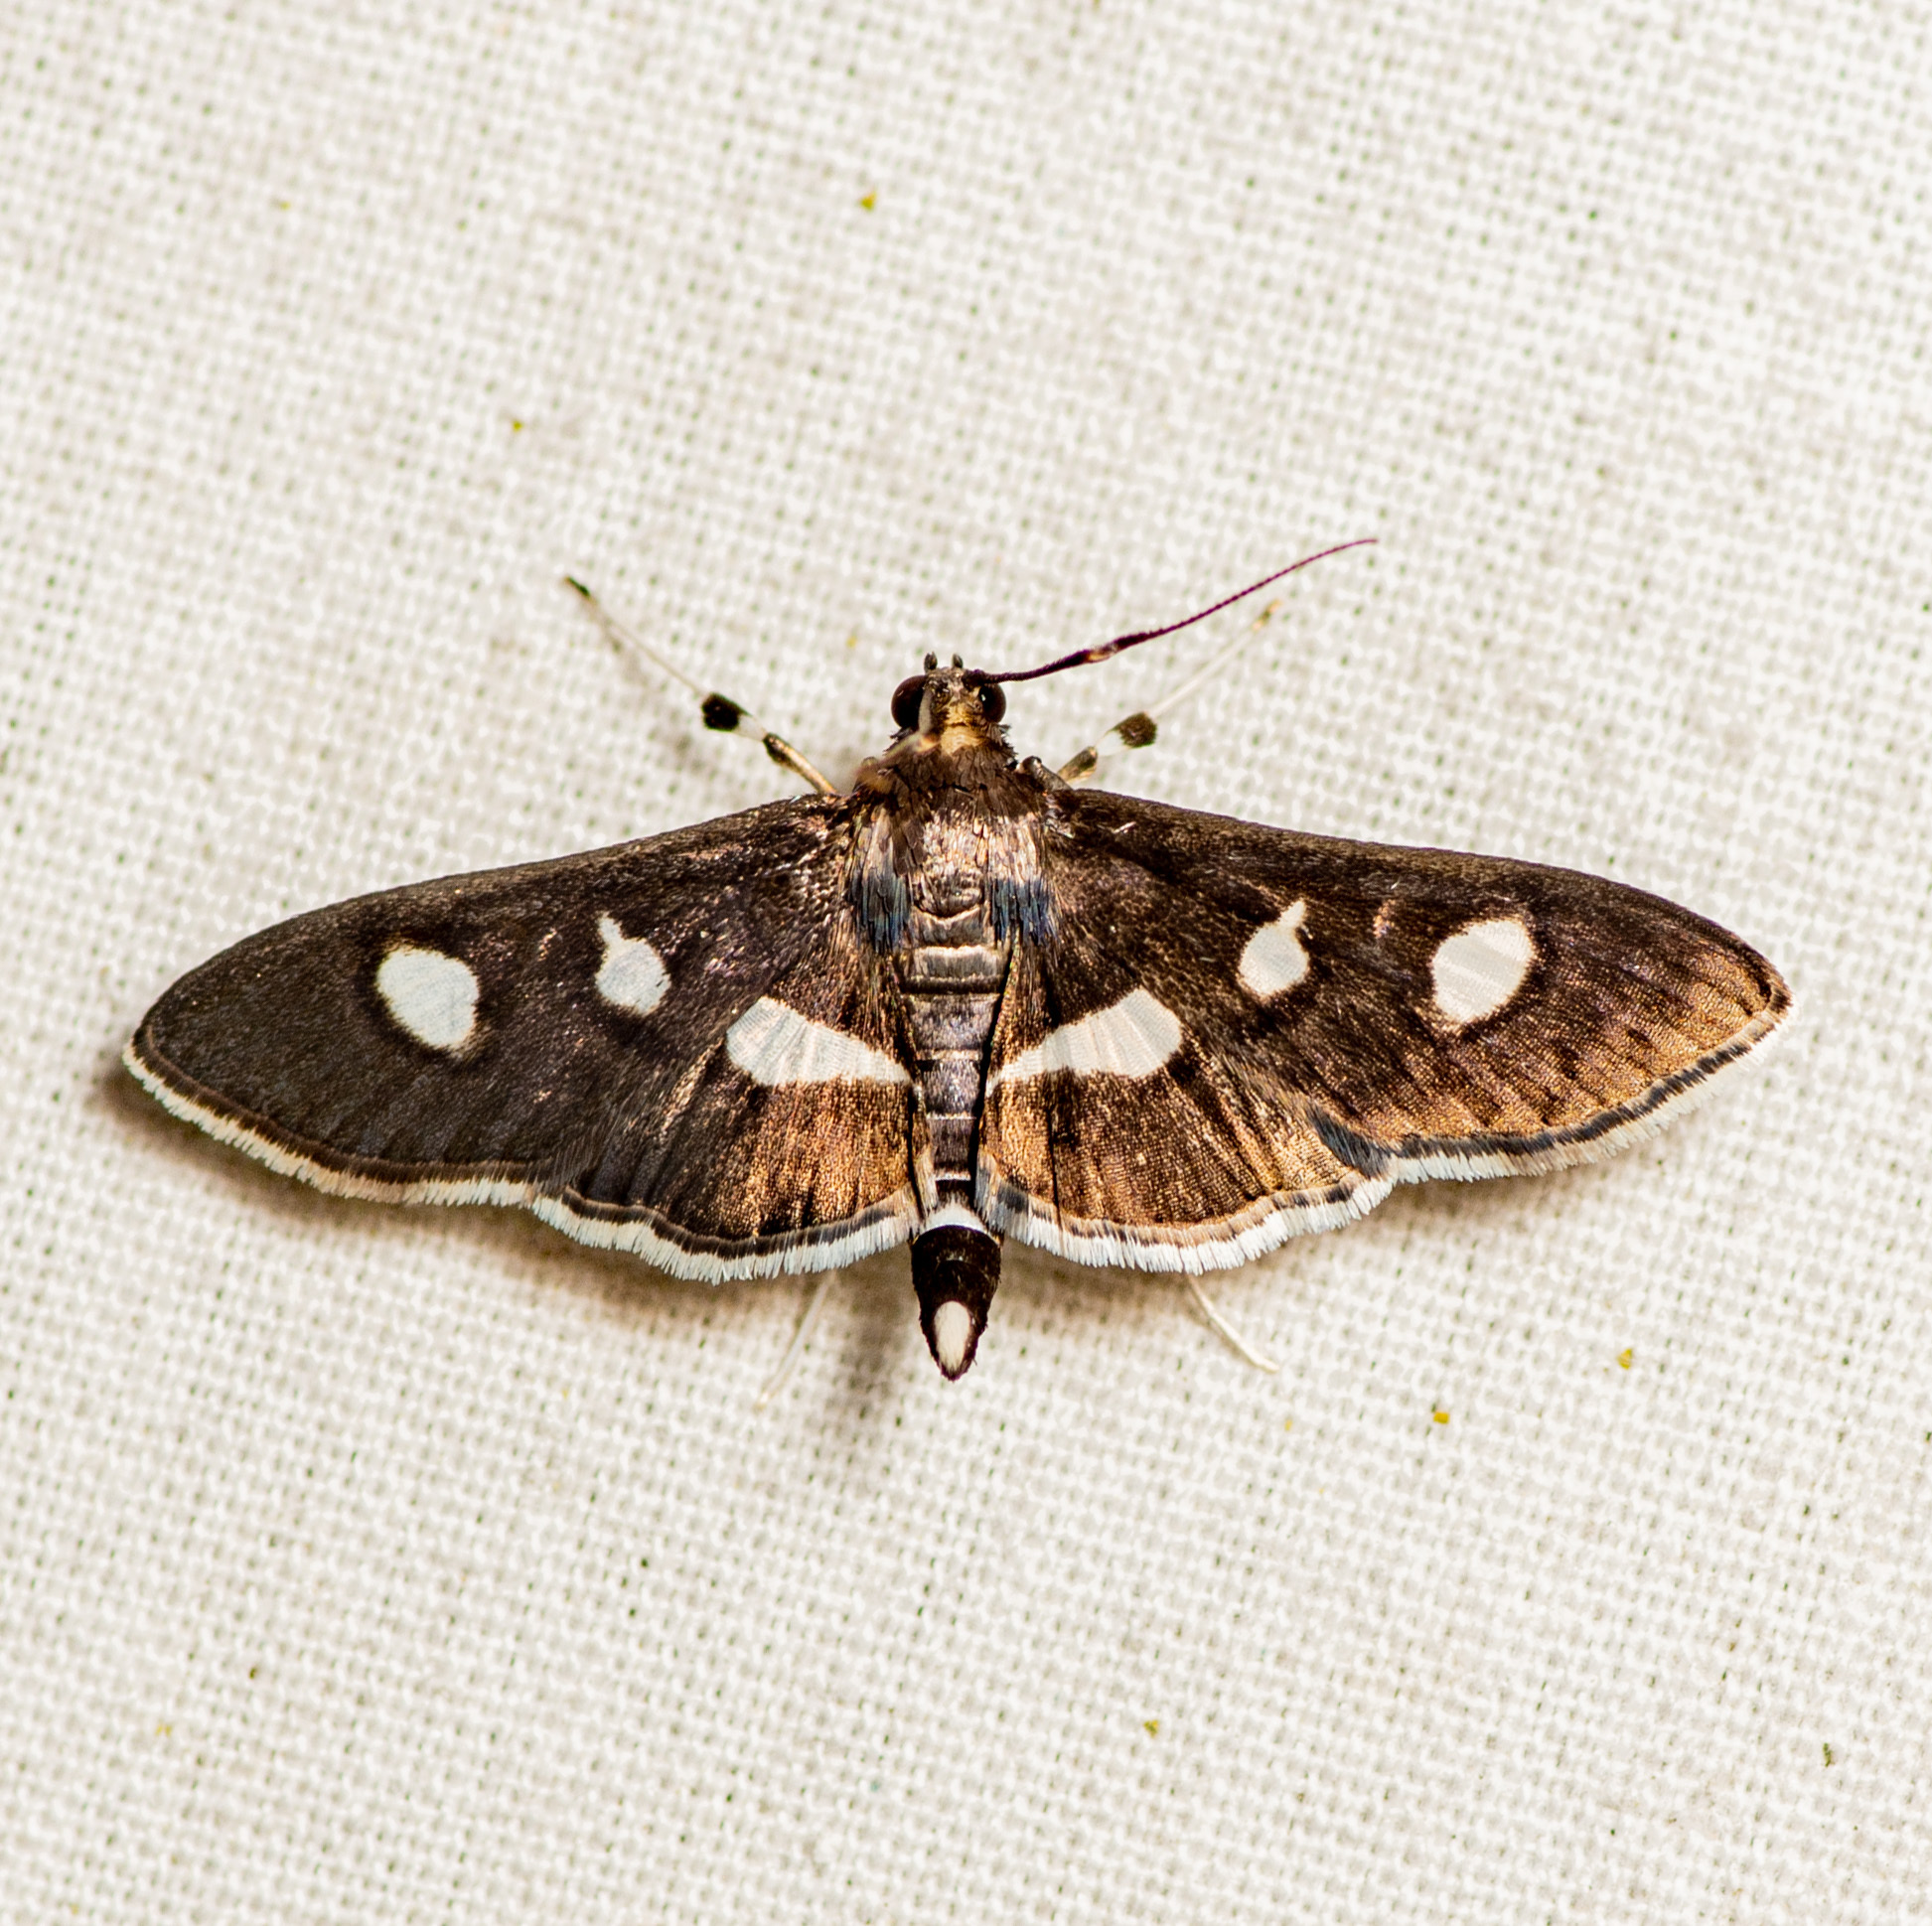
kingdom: Animalia
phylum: Arthropoda
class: Insecta
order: Lepidoptera
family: Crambidae
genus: Desmia
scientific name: Desmia funeralis
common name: Grape leaf folder moth
